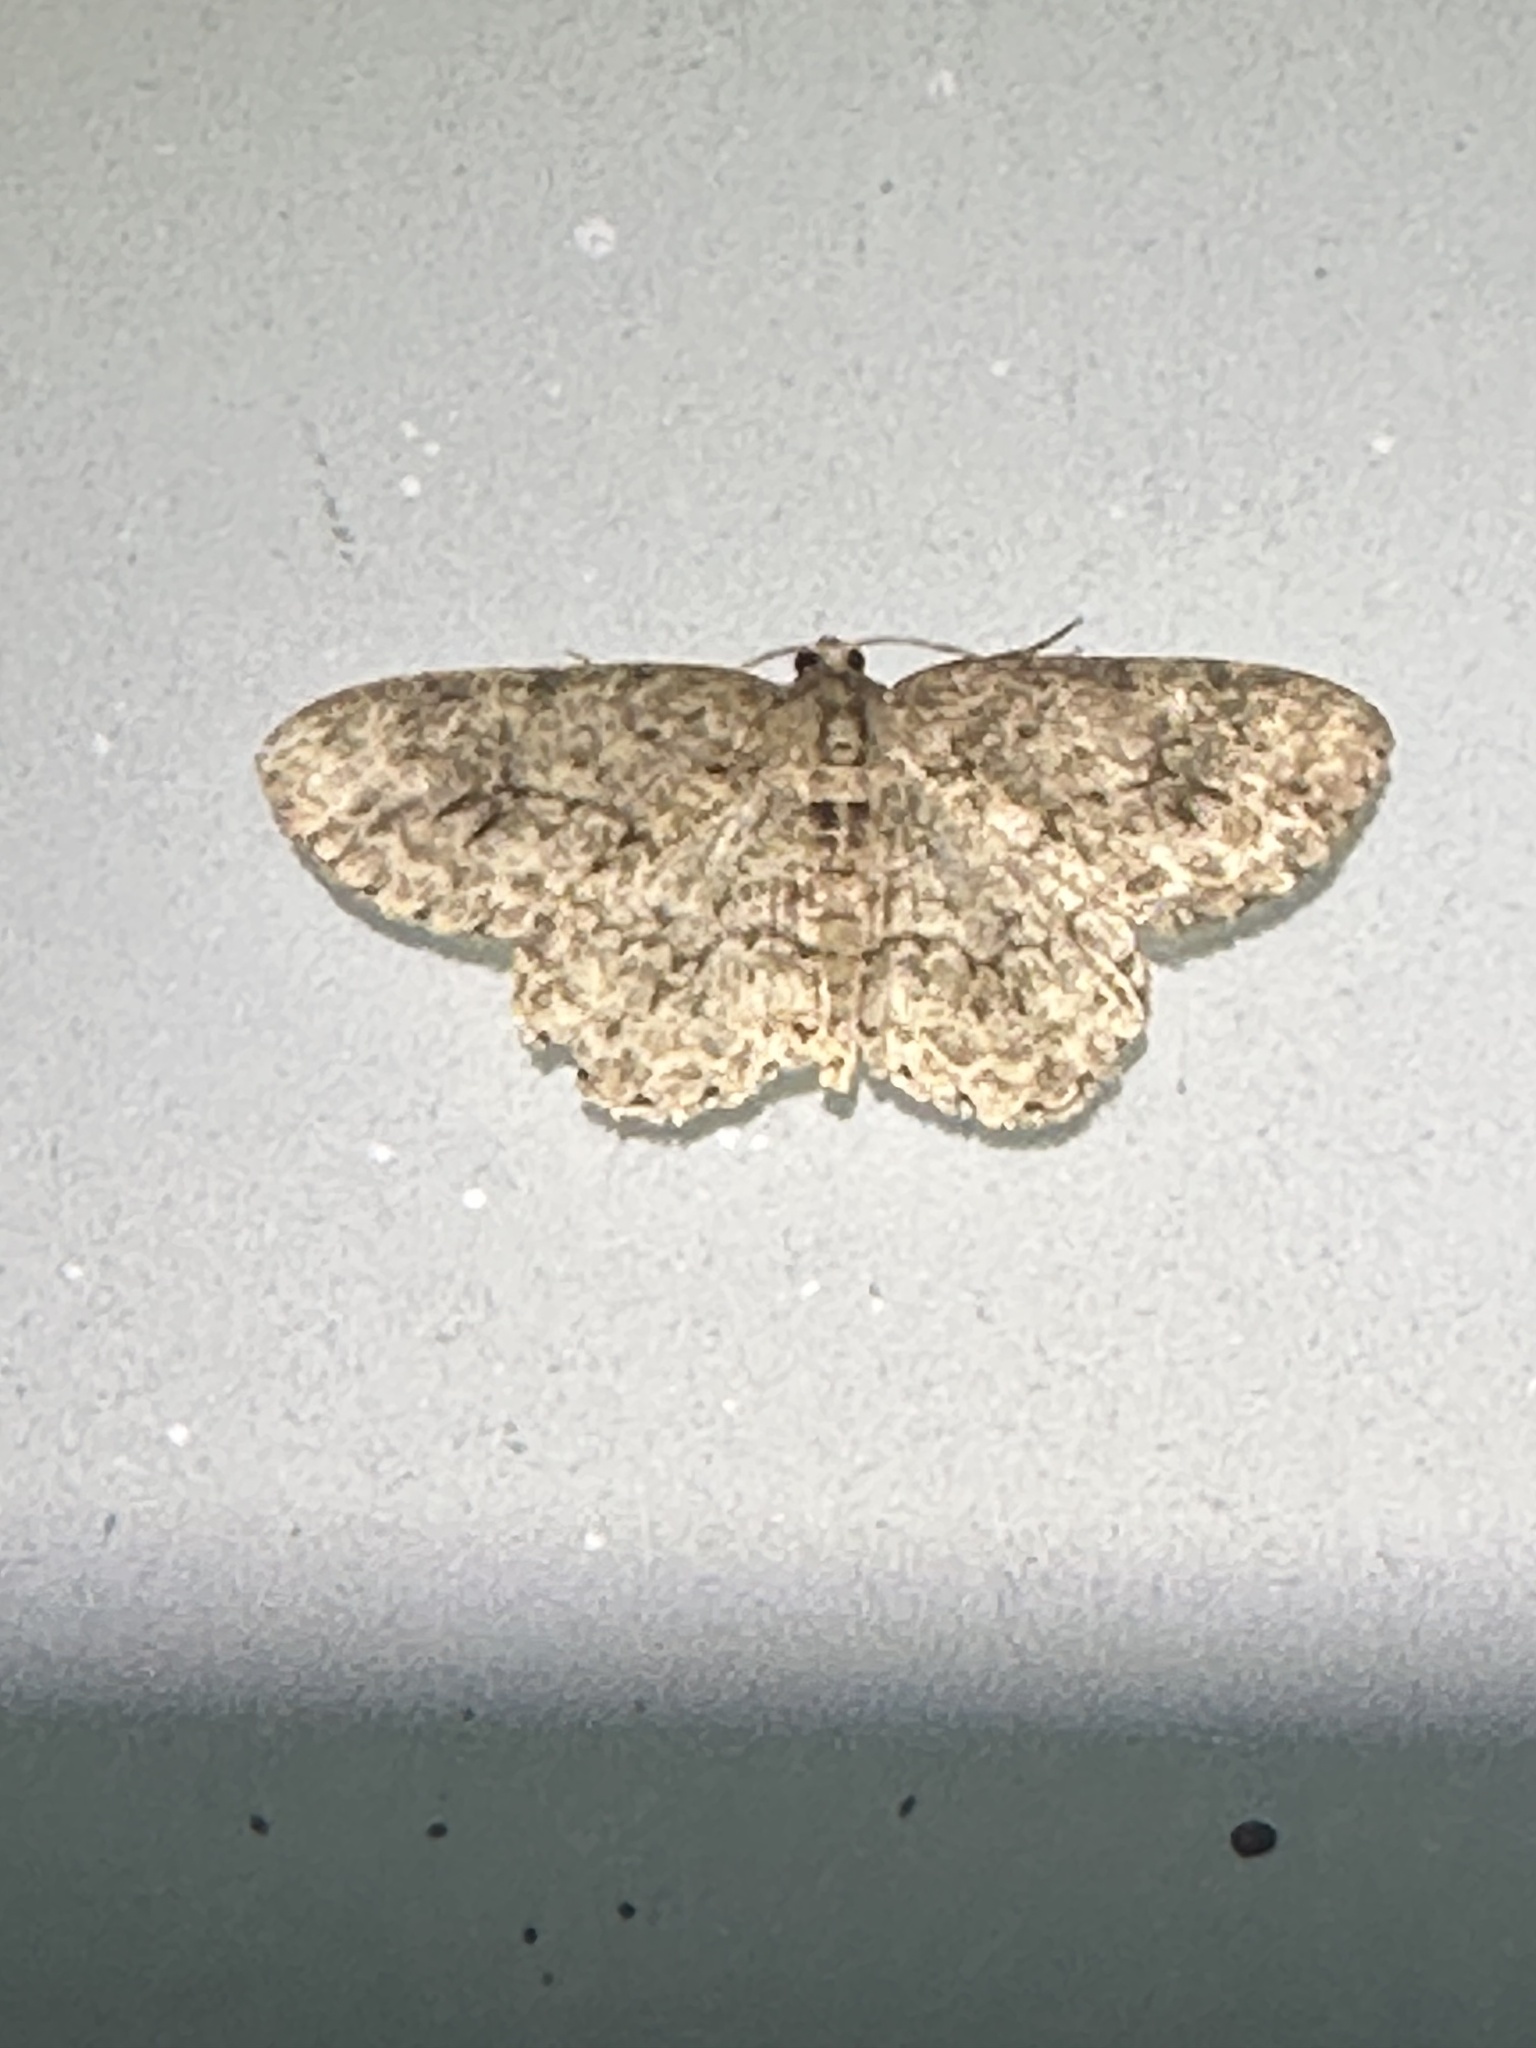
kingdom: Animalia
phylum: Arthropoda
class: Insecta
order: Lepidoptera
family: Geometridae
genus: Ectropis
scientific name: Ectropis crepuscularia
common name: Engrailed
